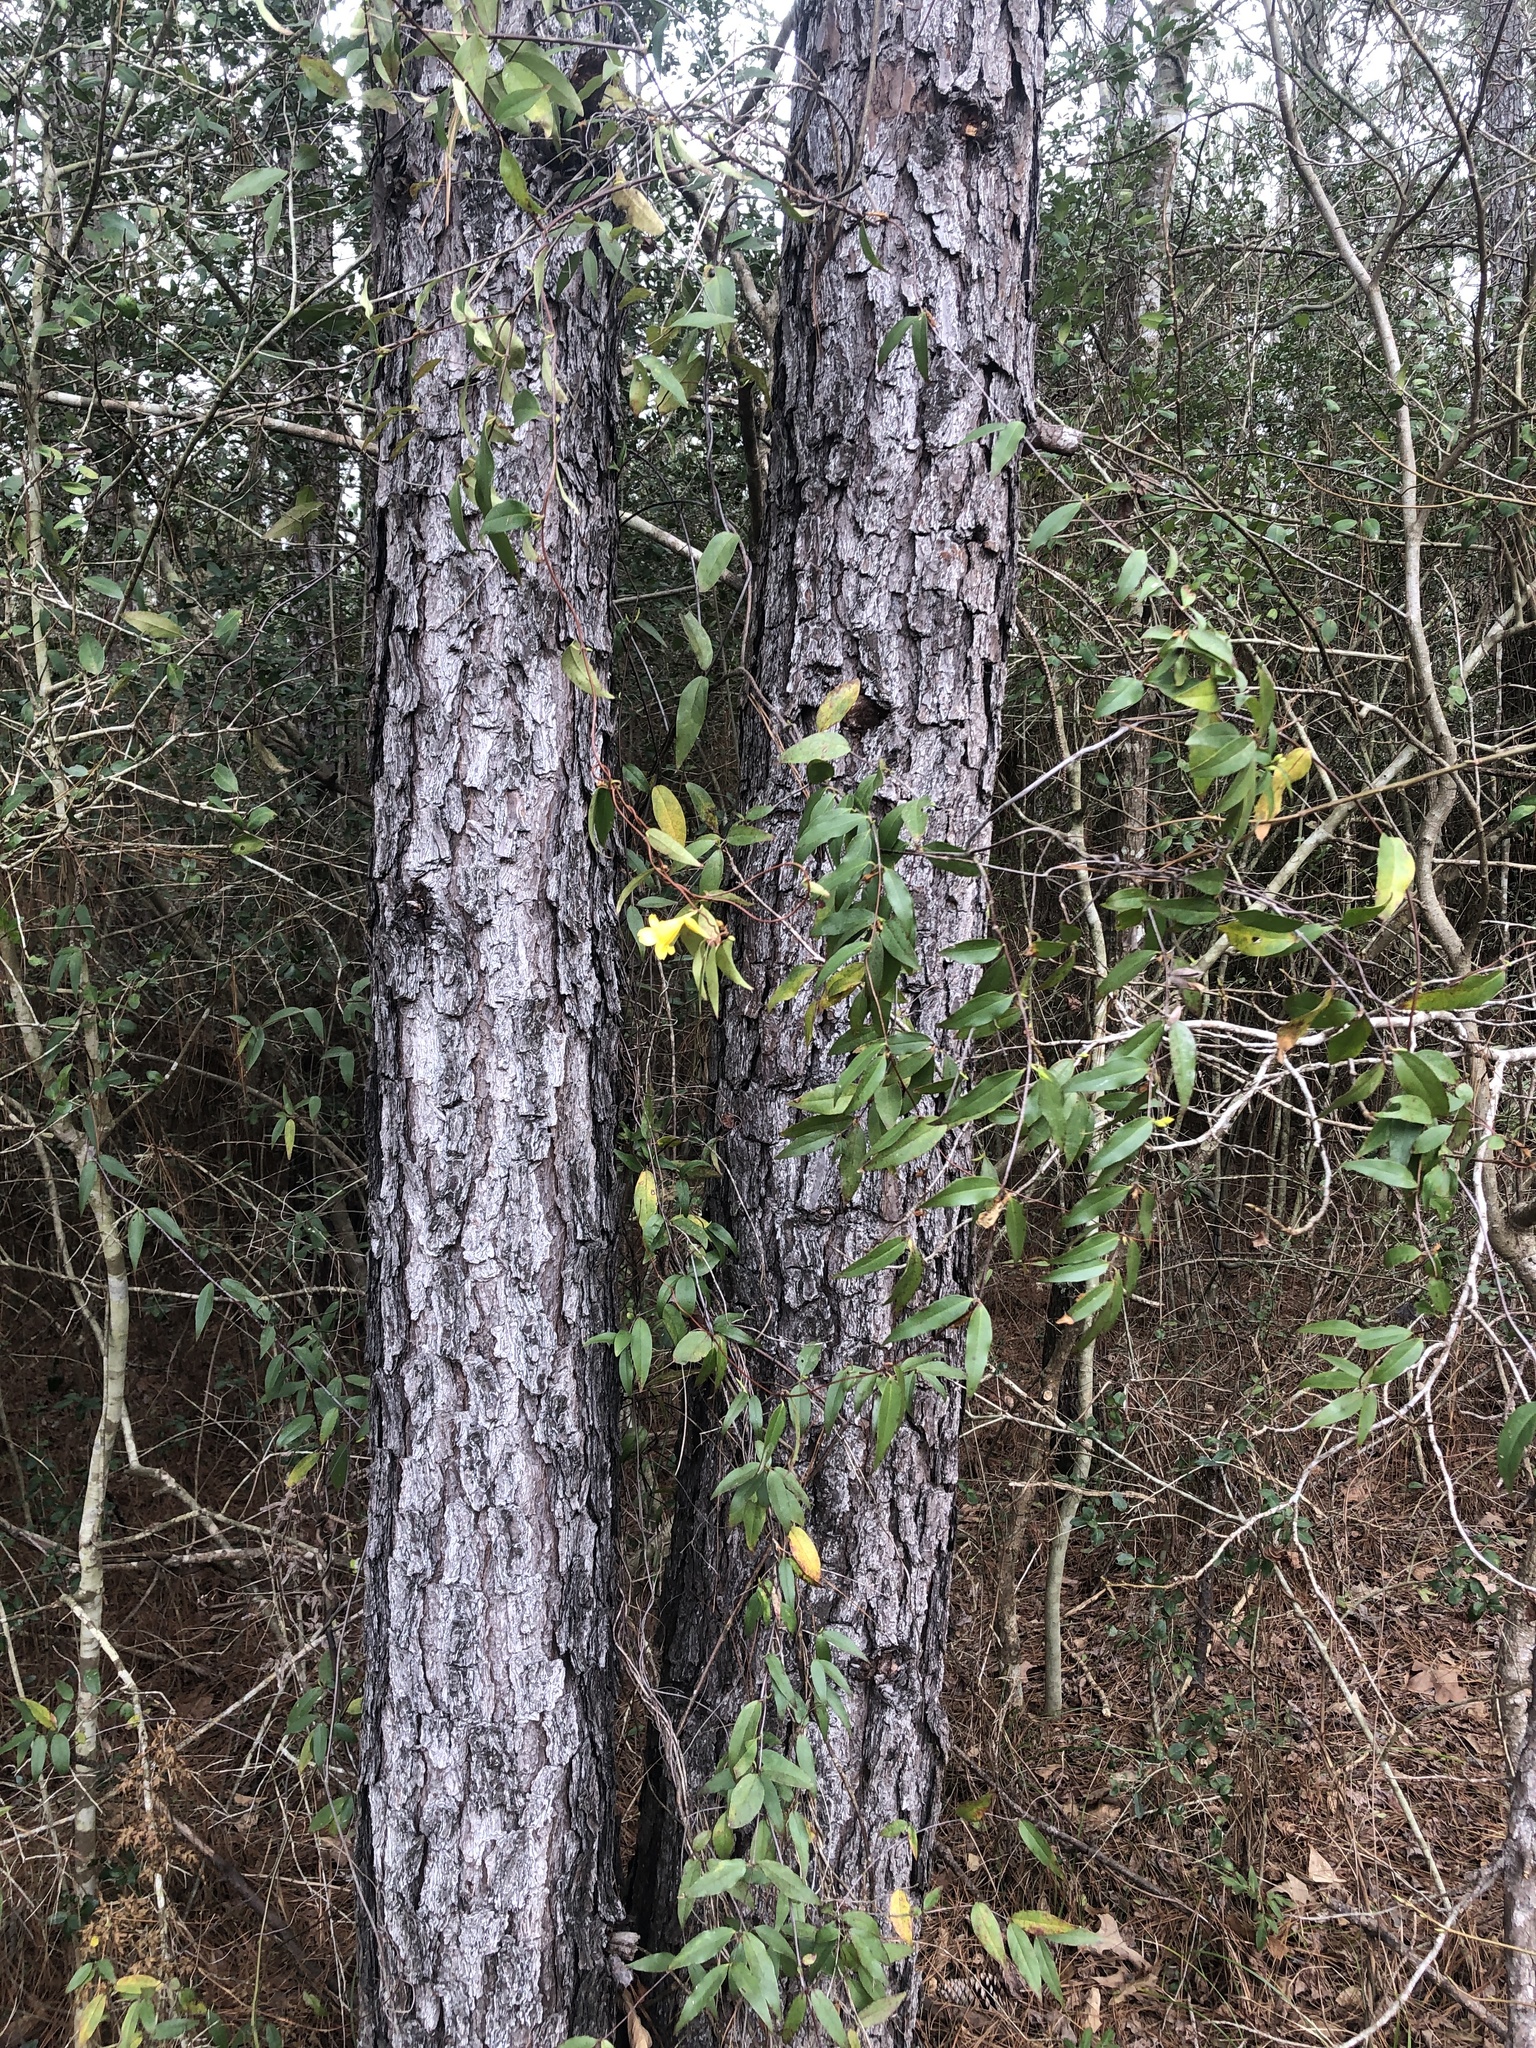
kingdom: Plantae
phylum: Tracheophyta
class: Magnoliopsida
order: Gentianales
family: Gelsemiaceae
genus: Gelsemium
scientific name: Gelsemium sempervirens
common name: Carolina-jasmine
